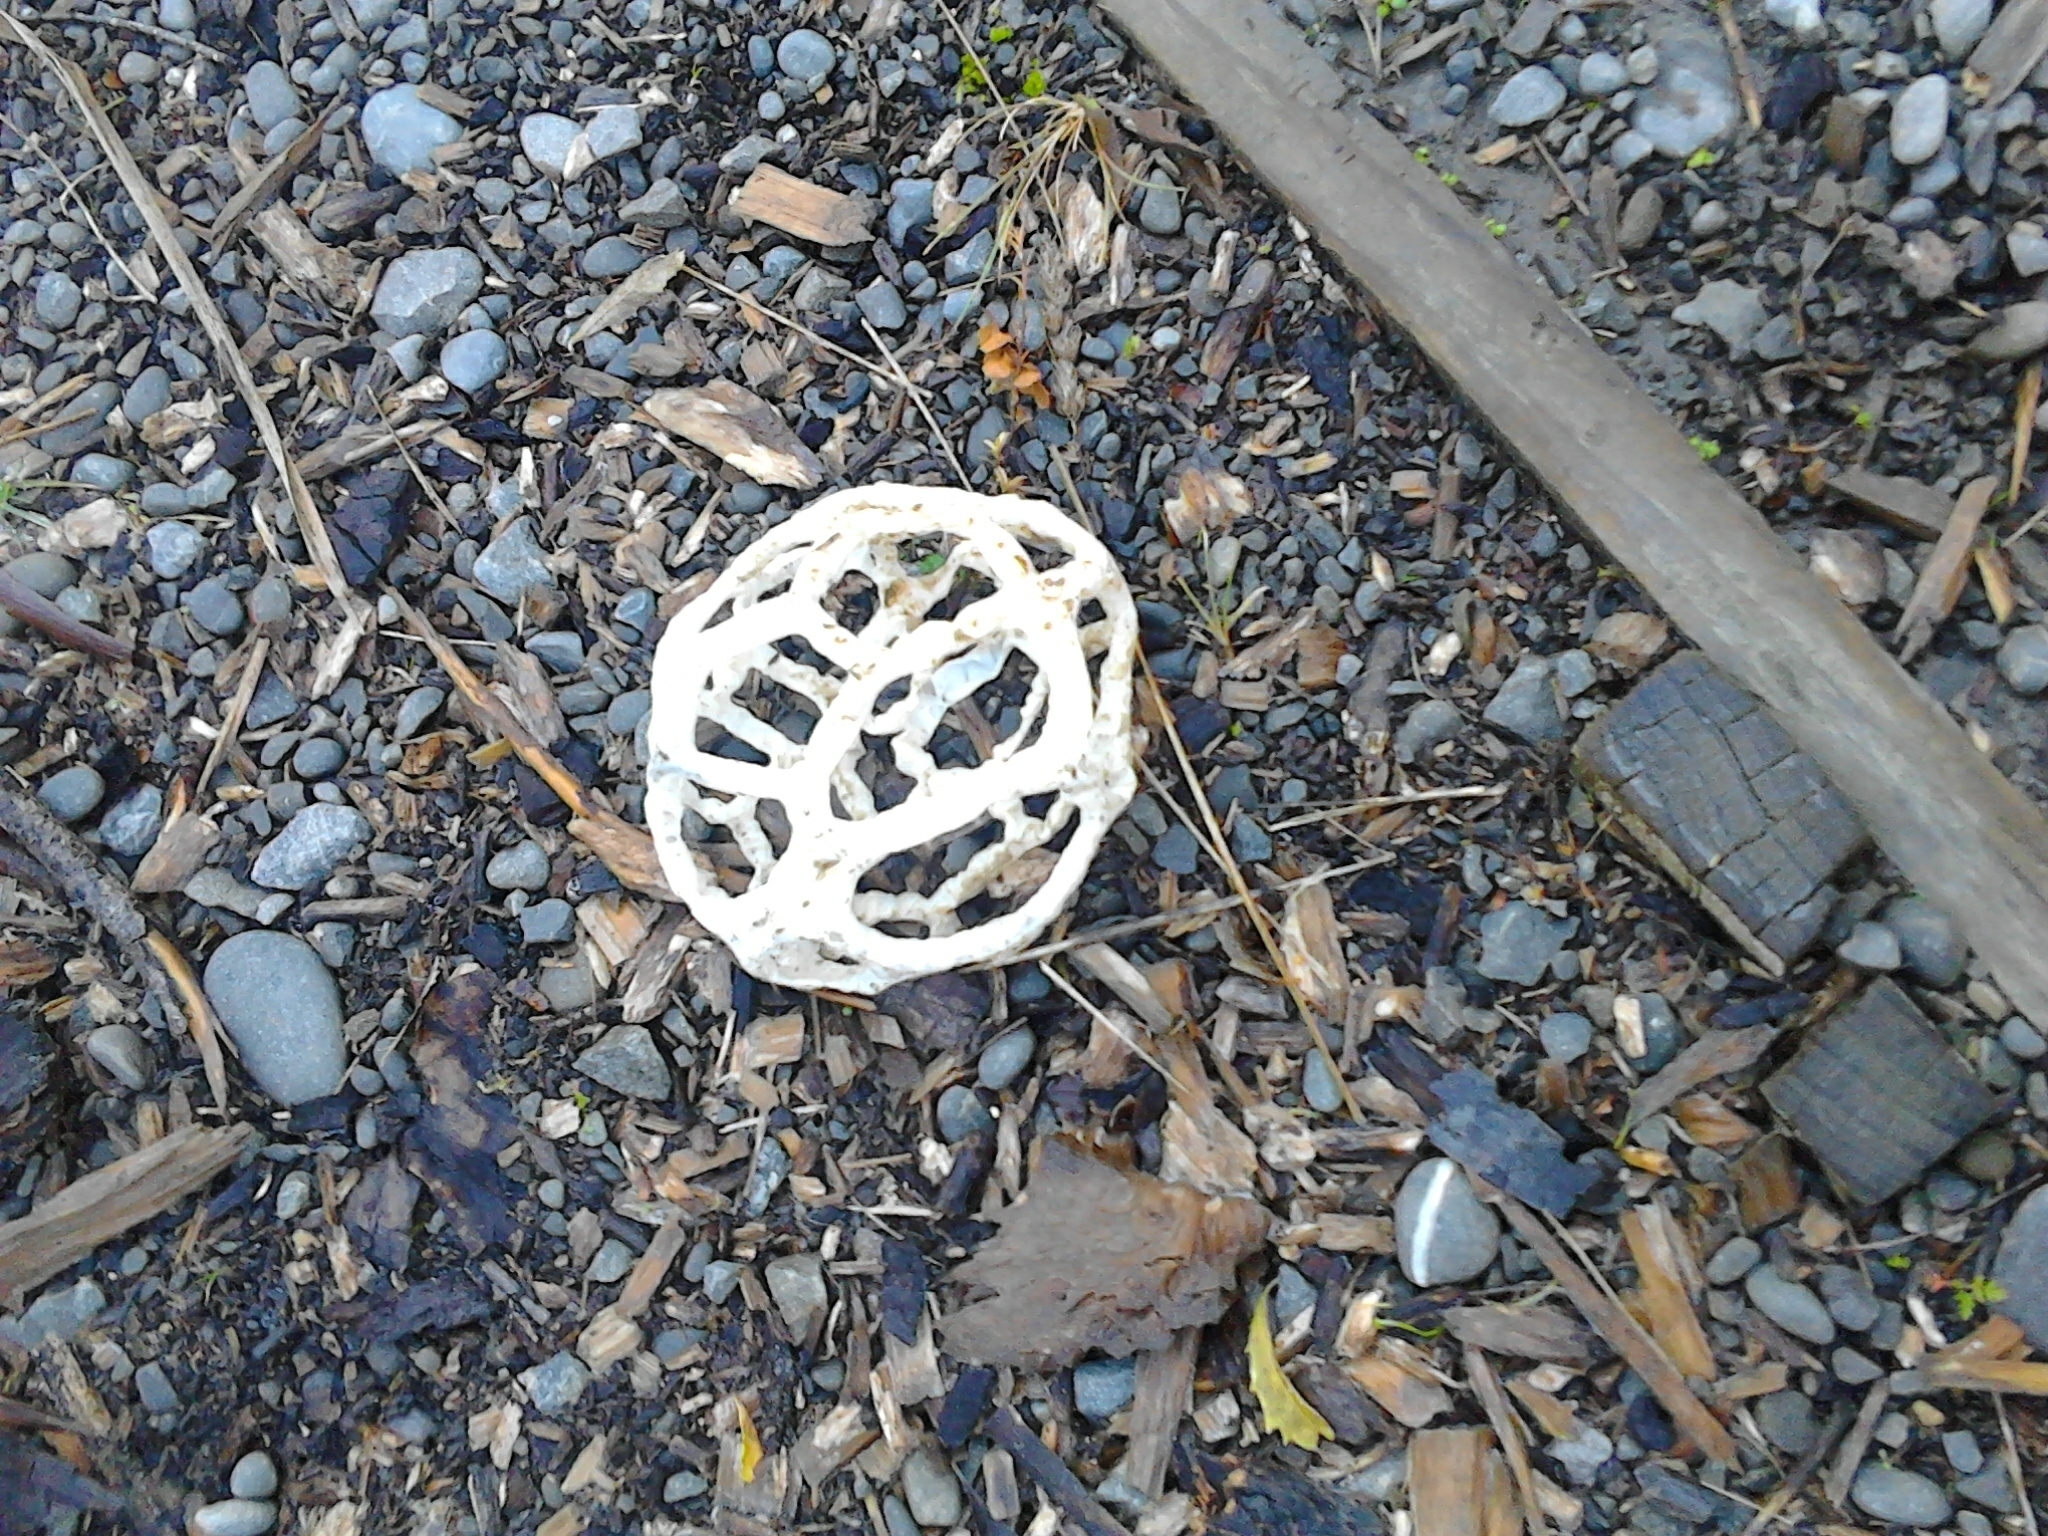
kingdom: Fungi
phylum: Basidiomycota
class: Agaricomycetes
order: Phallales
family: Phallaceae
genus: Ileodictyon
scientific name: Ileodictyon cibarium
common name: Basket fungus
